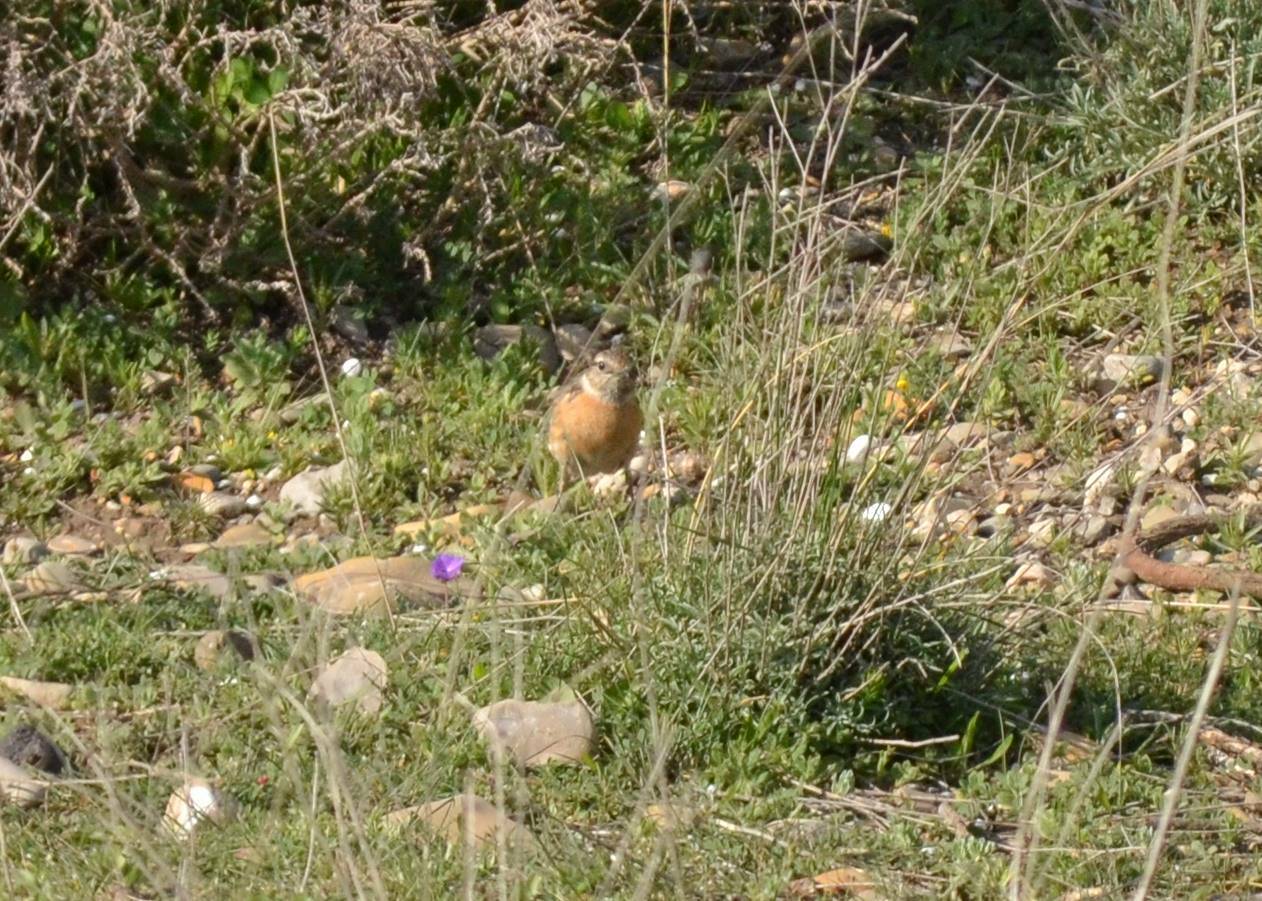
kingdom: Animalia
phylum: Chordata
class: Aves
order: Passeriformes
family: Muscicapidae
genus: Saxicola
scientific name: Saxicola rubicola
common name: European stonechat
